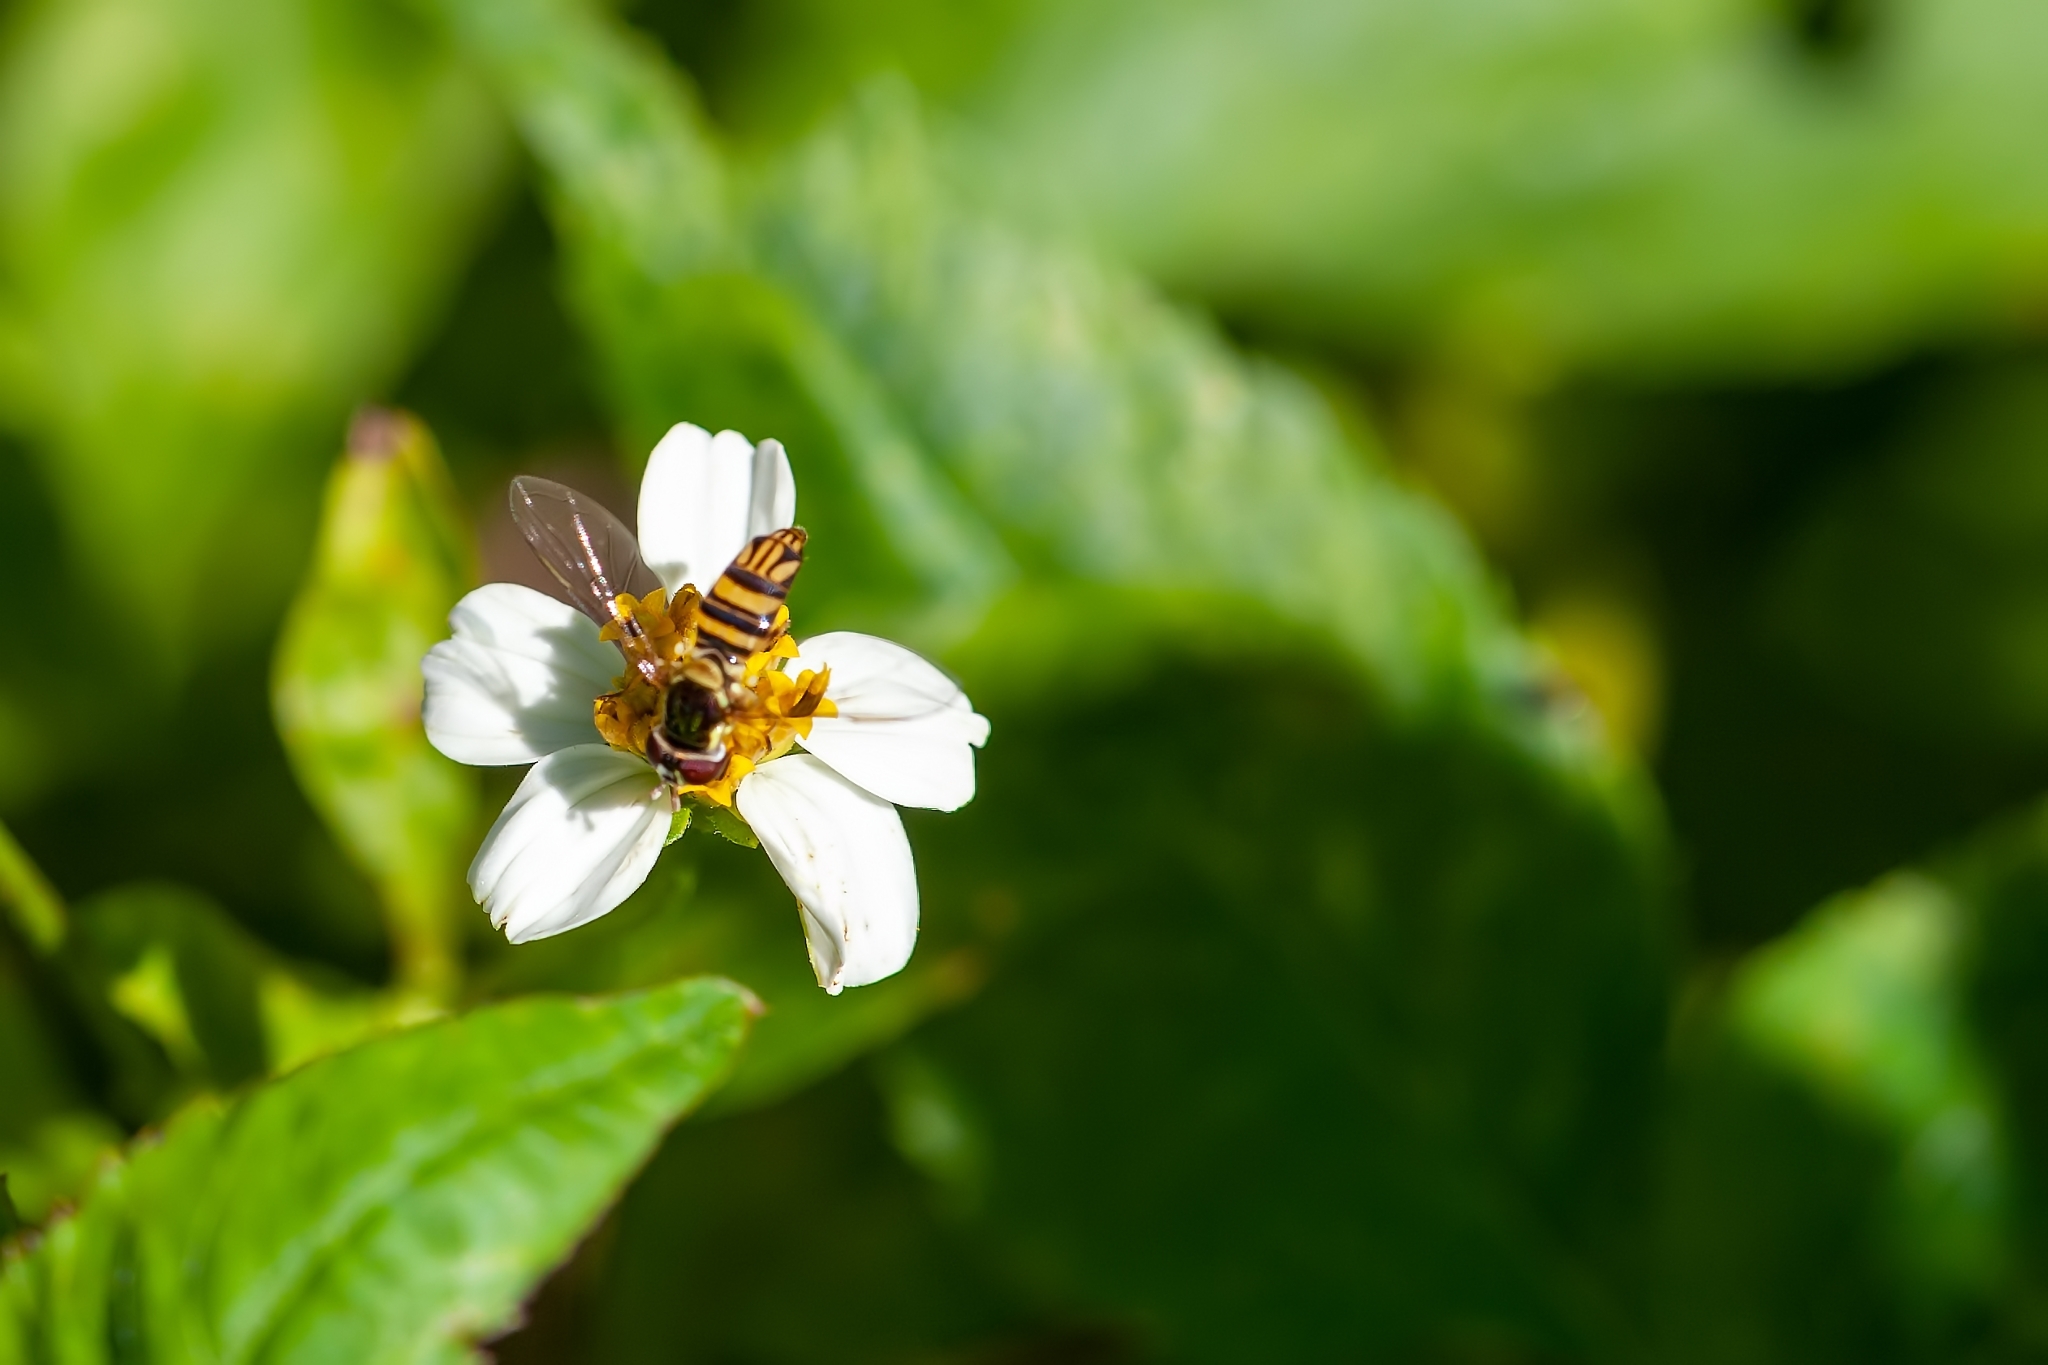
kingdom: Animalia
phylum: Arthropoda
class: Insecta
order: Diptera
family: Syrphidae
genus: Allograpta
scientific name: Allograpta obliqua
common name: Common oblique syrphid
